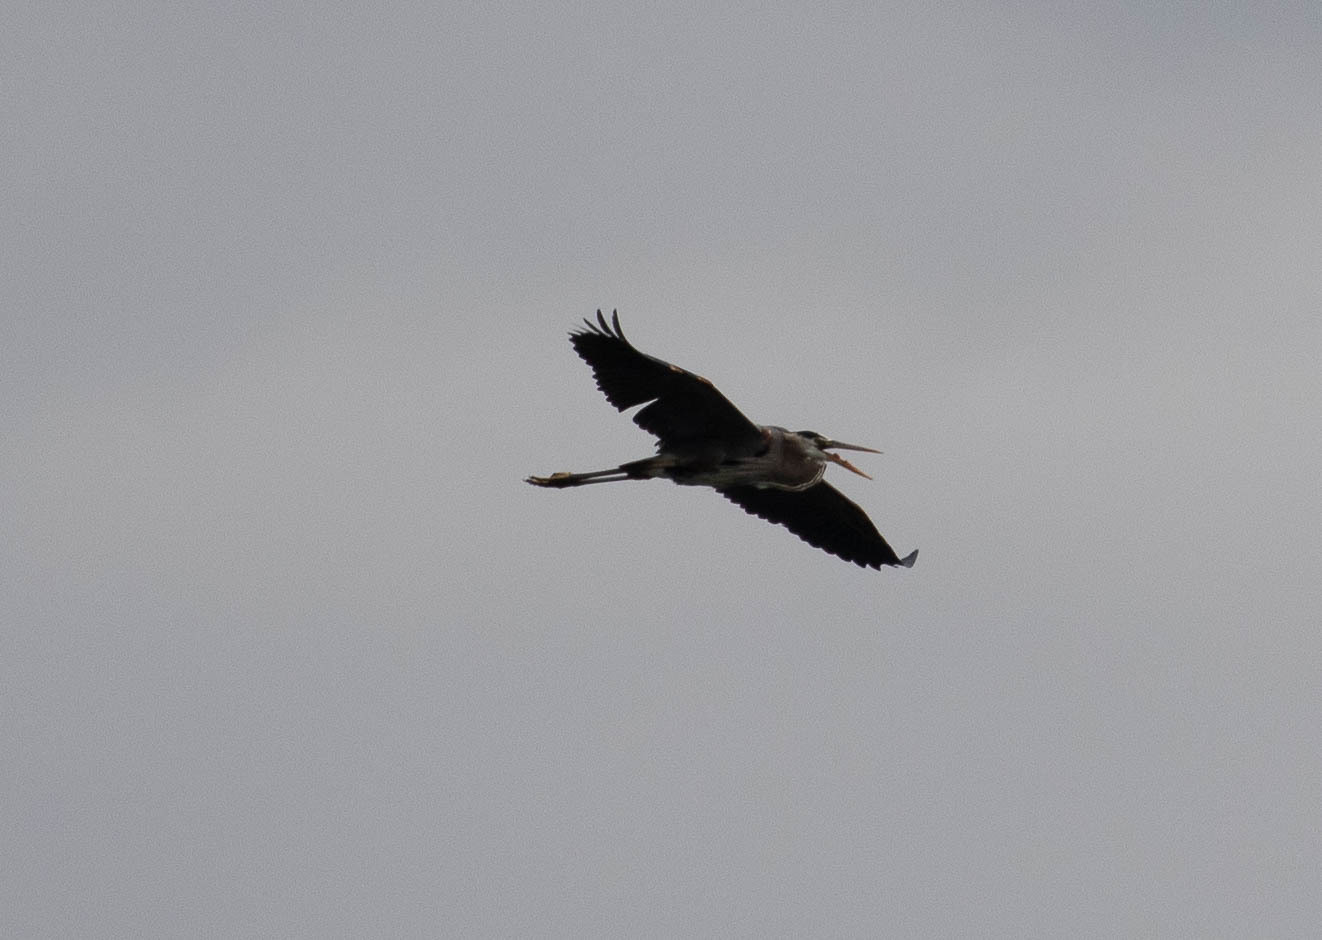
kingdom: Animalia
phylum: Chordata
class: Aves
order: Pelecaniformes
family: Ardeidae
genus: Ardea
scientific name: Ardea herodias
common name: Great blue heron
